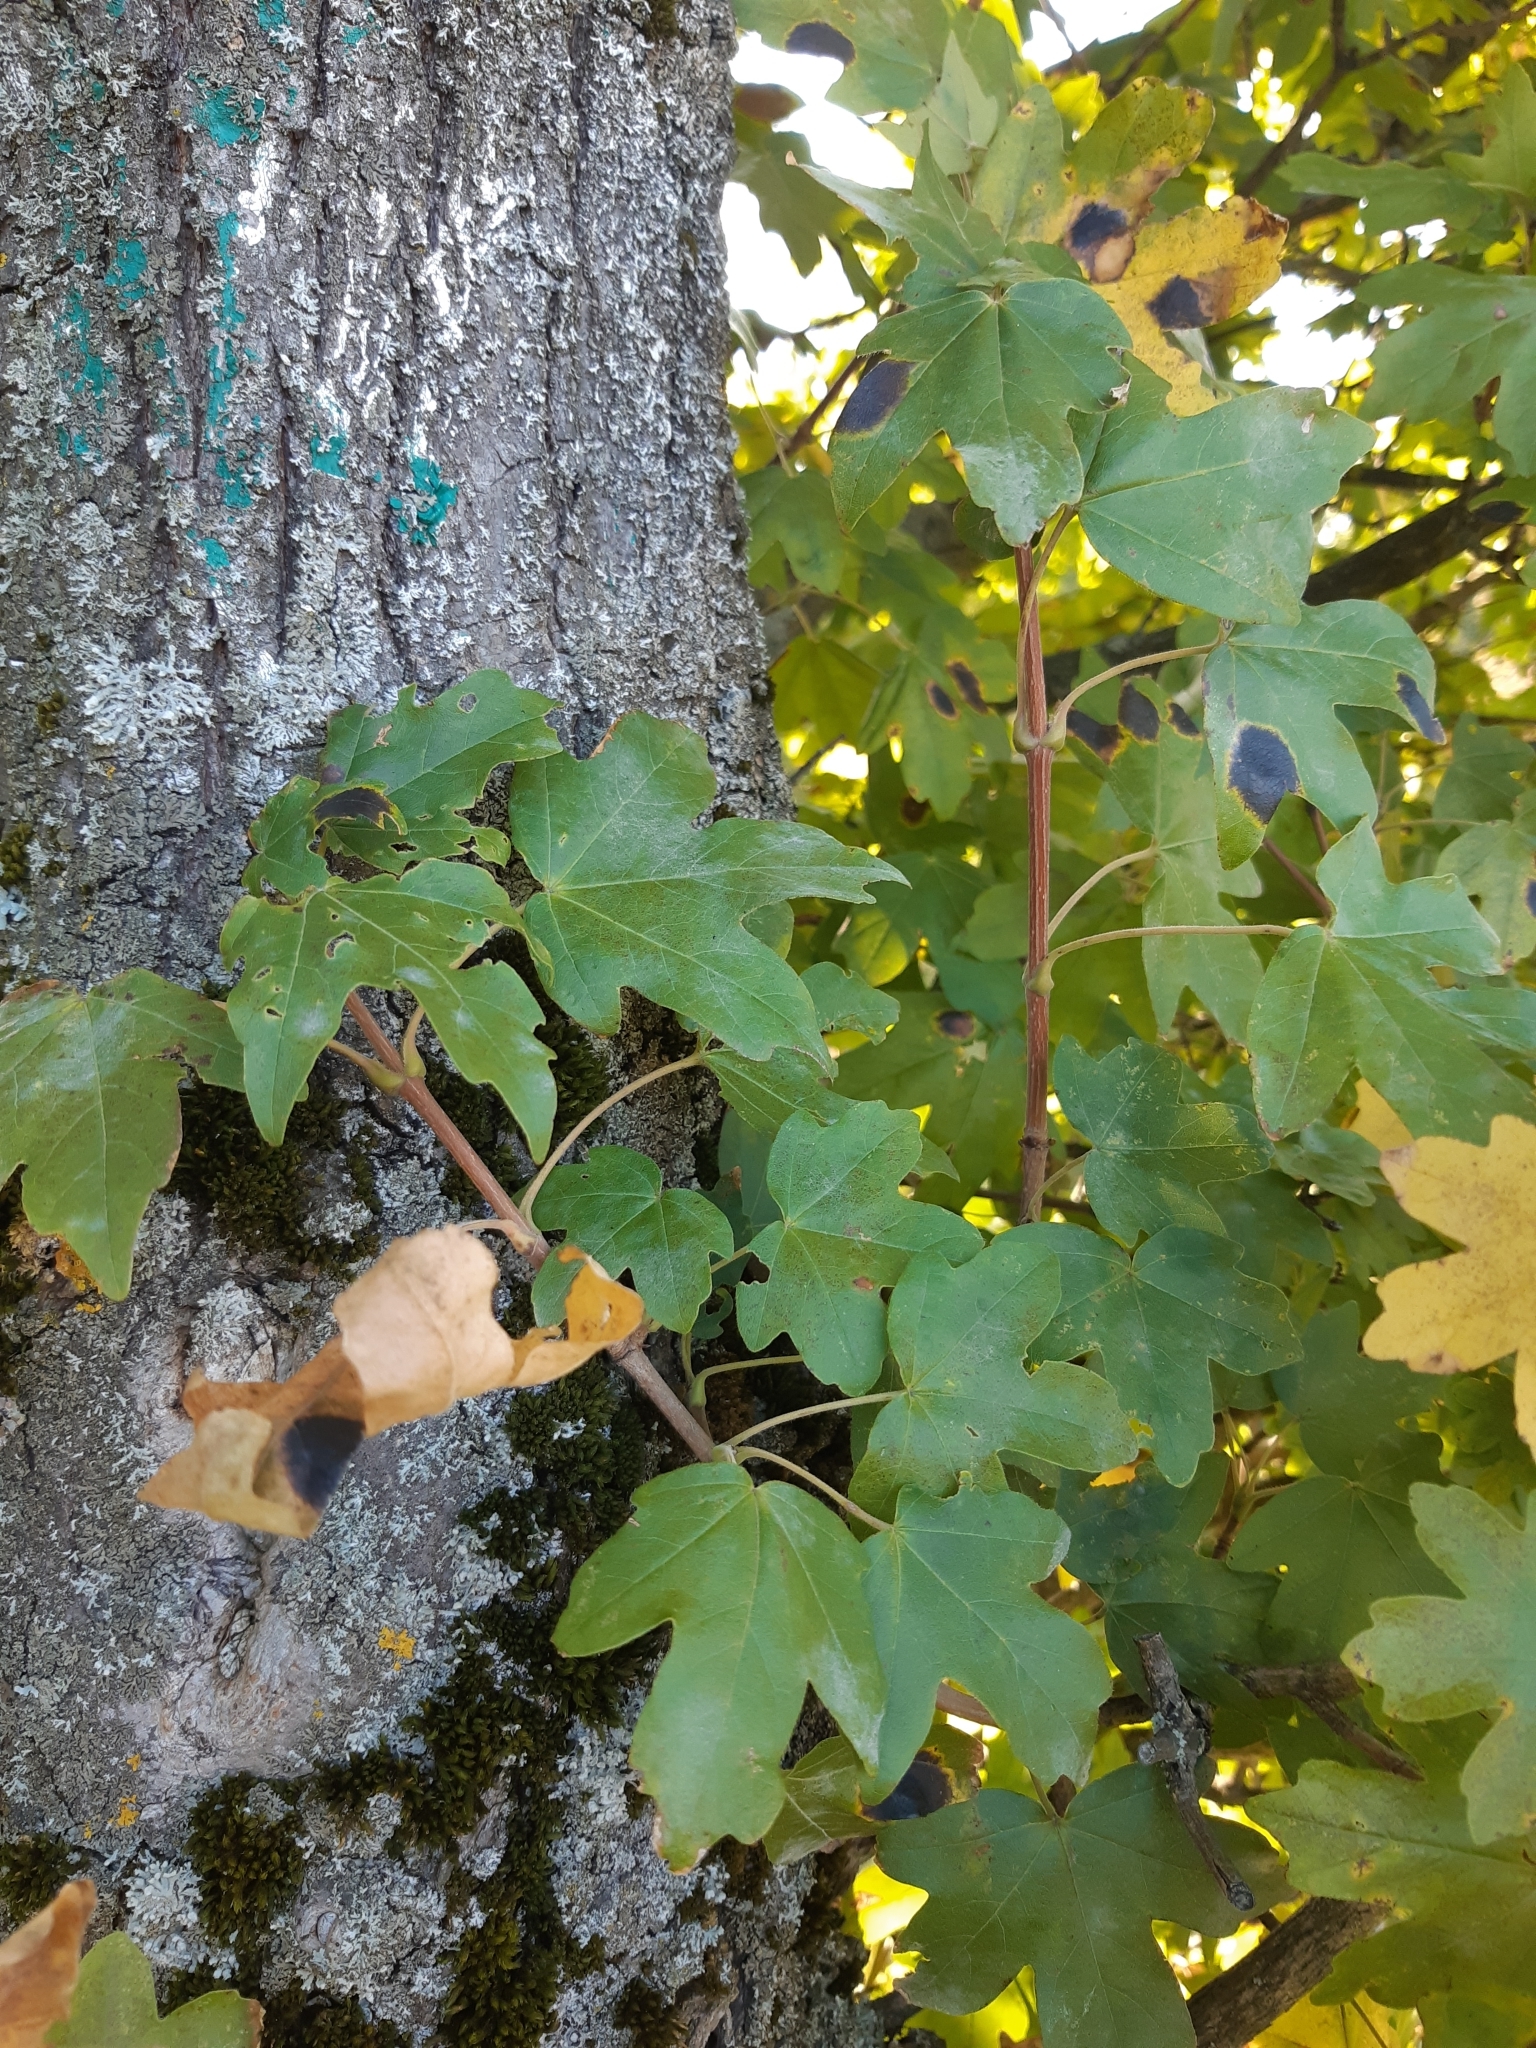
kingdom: Plantae
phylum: Tracheophyta
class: Magnoliopsida
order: Sapindales
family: Sapindaceae
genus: Acer
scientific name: Acer campestre
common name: Field maple
